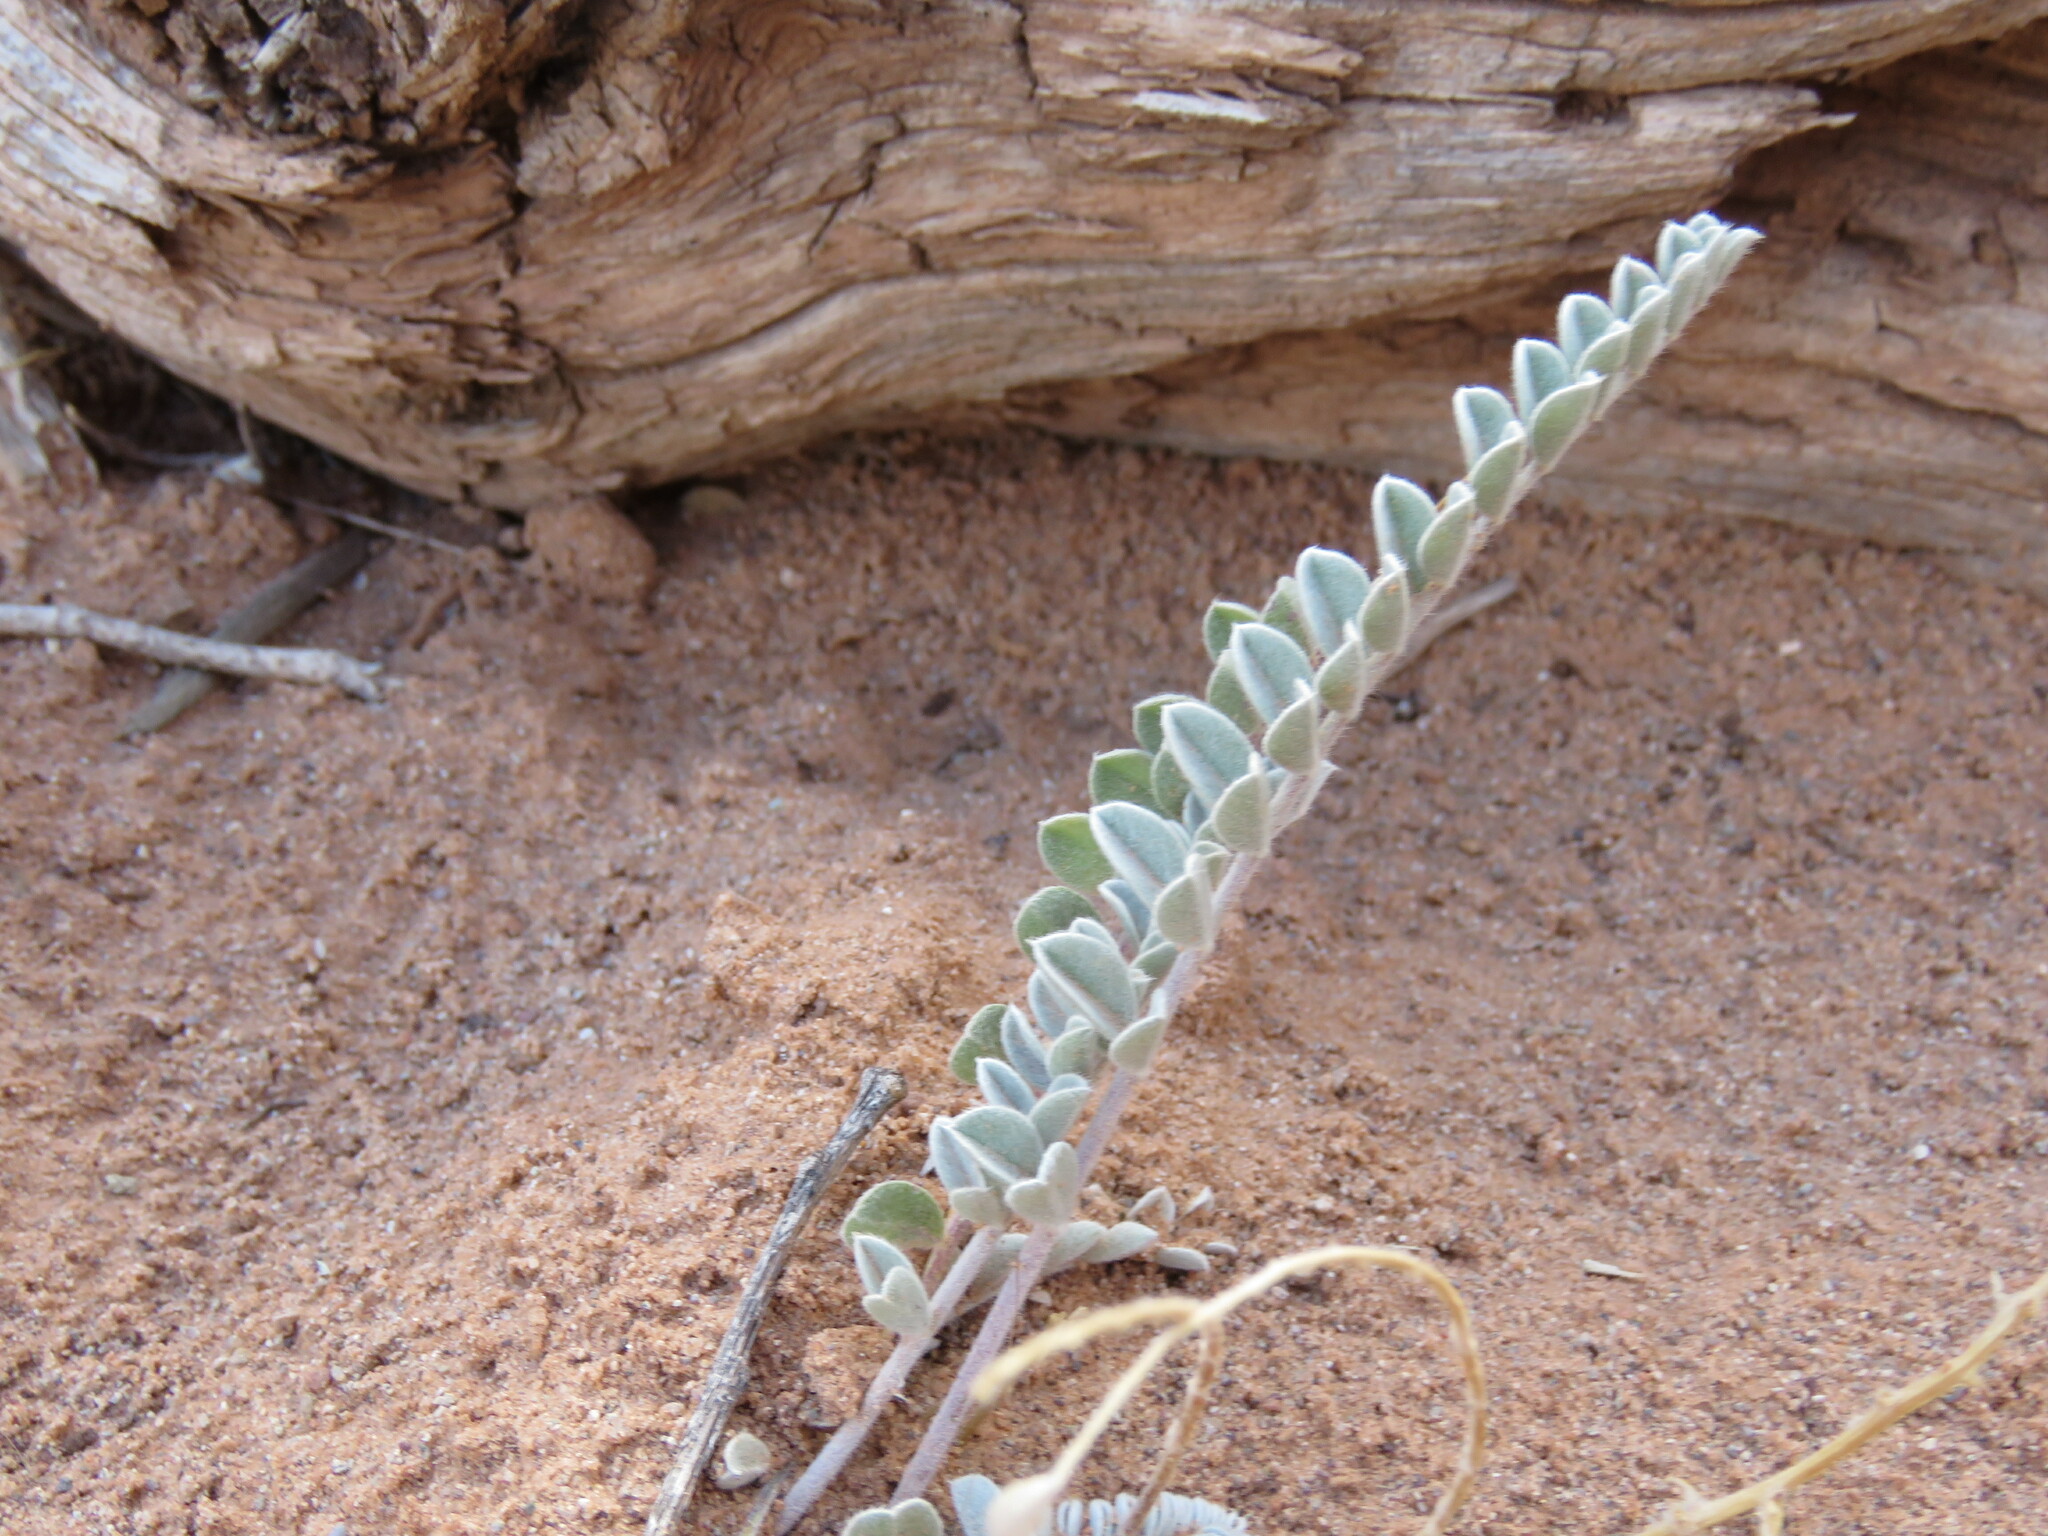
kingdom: Plantae
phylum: Tracheophyta
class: Magnoliopsida
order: Fabales
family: Fabaceae
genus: Astragalus
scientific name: Astragalus mollissimus
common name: Woolly locoweed
